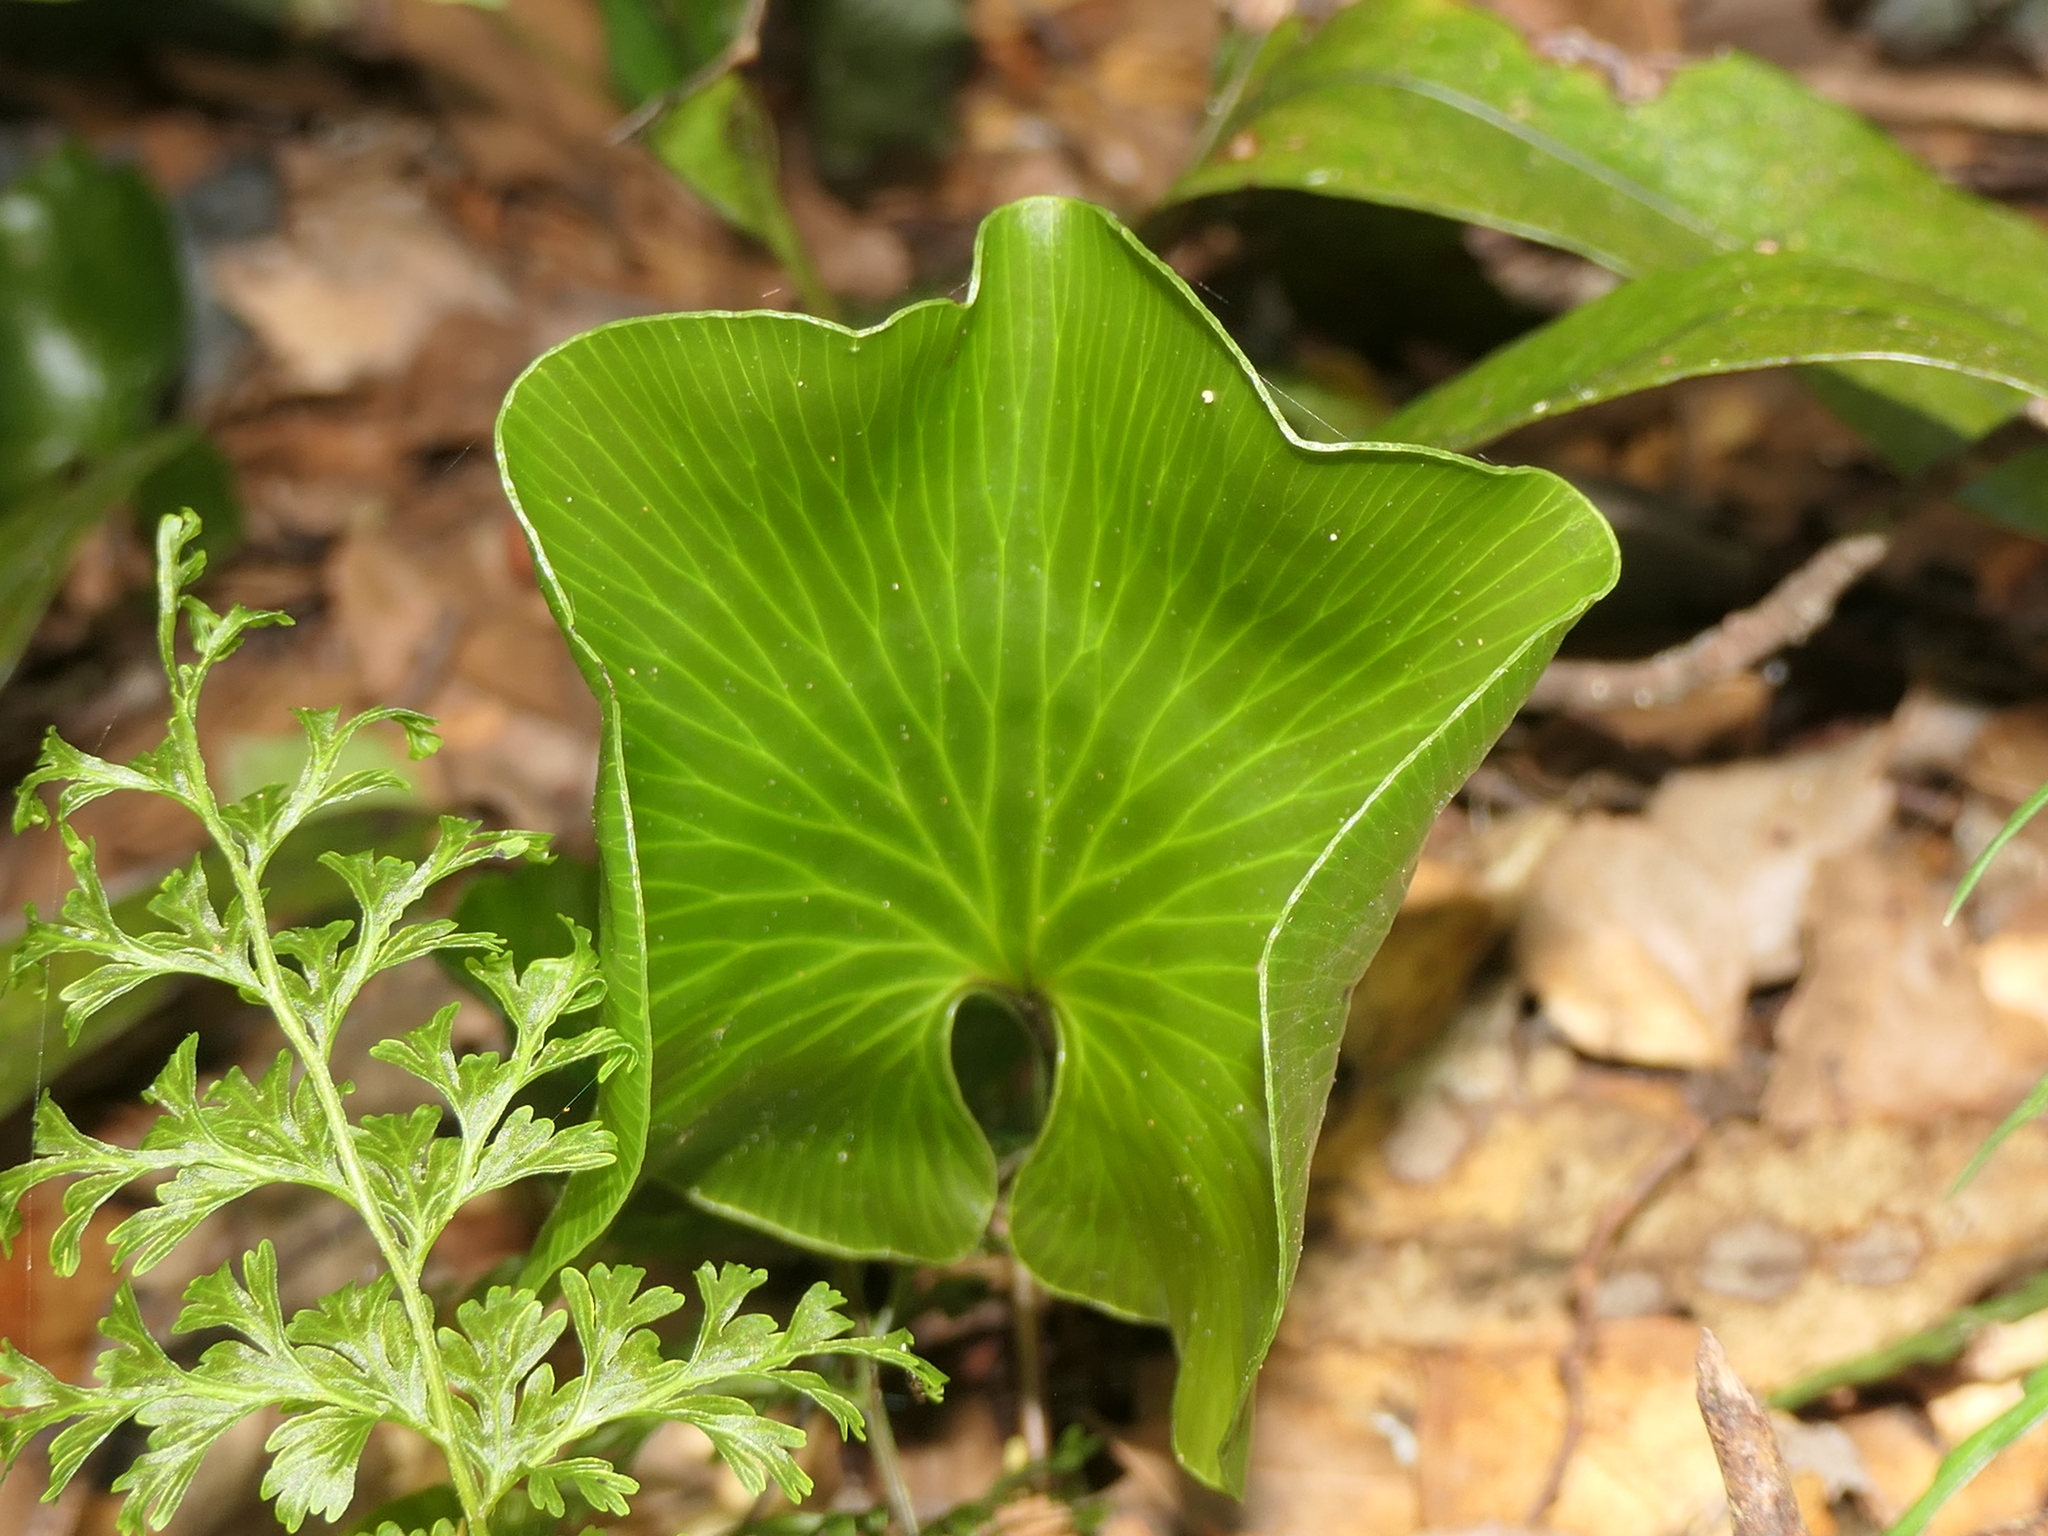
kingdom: Plantae
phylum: Tracheophyta
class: Polypodiopsida
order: Hymenophyllales
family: Hymenophyllaceae
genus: Hymenophyllum
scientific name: Hymenophyllum nephrophyllum
